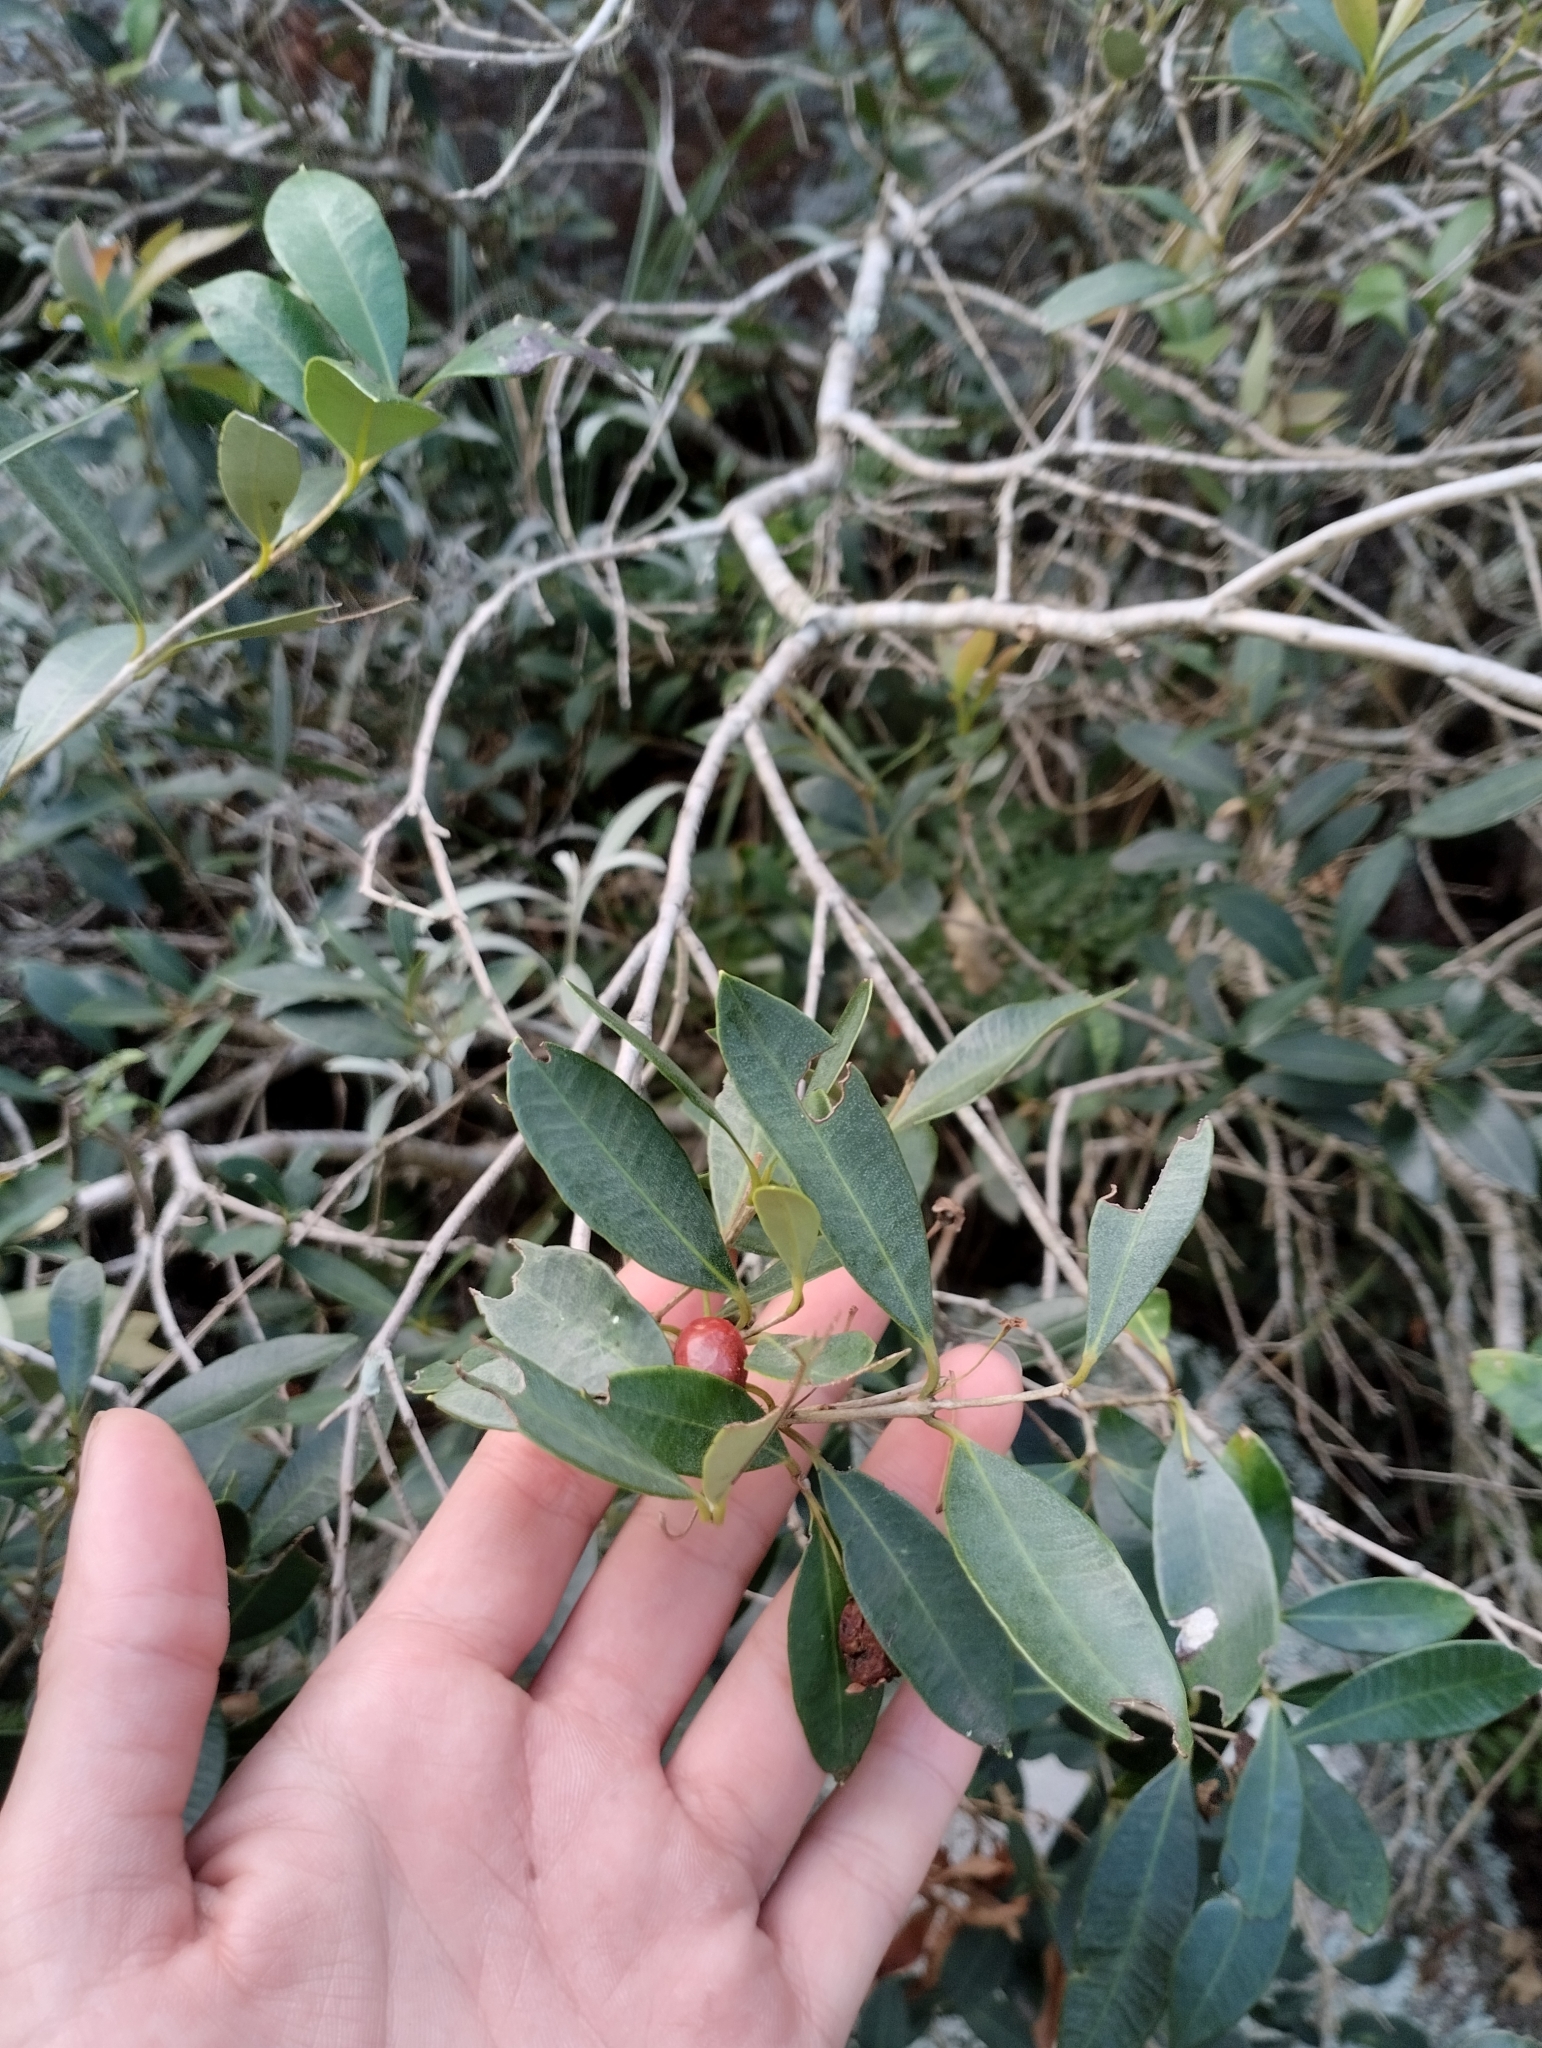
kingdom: Plantae
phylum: Tracheophyta
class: Magnoliopsida
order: Myrtales
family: Myrtaceae
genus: Myrceugenia
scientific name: Myrceugenia glaucescens
